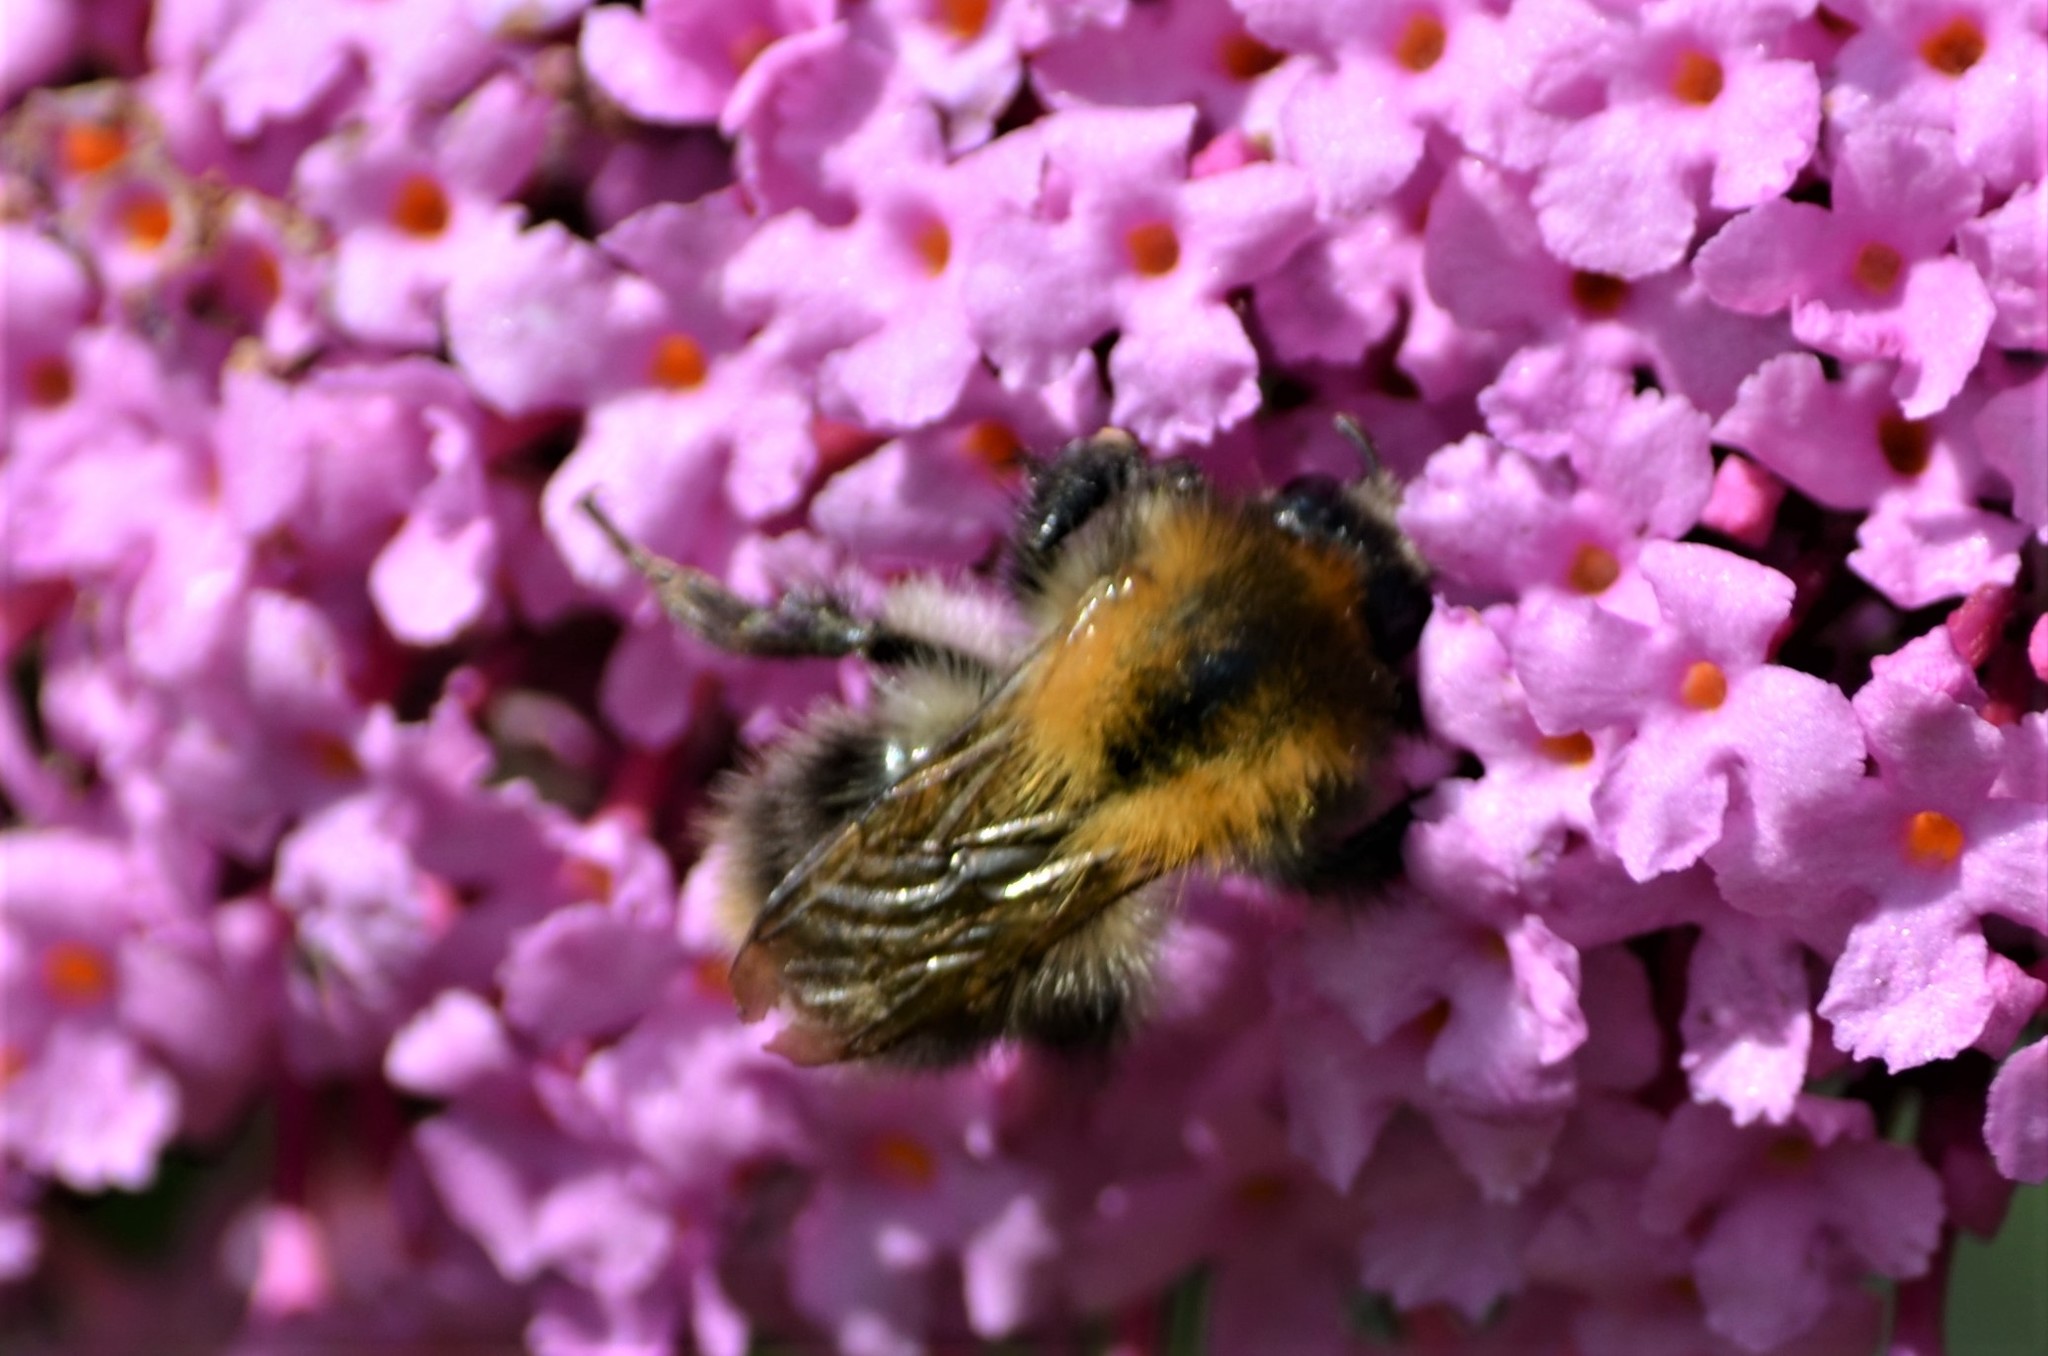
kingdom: Animalia
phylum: Arthropoda
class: Insecta
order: Hymenoptera
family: Apidae
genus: Bombus
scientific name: Bombus pascuorum
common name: Common carder bee
